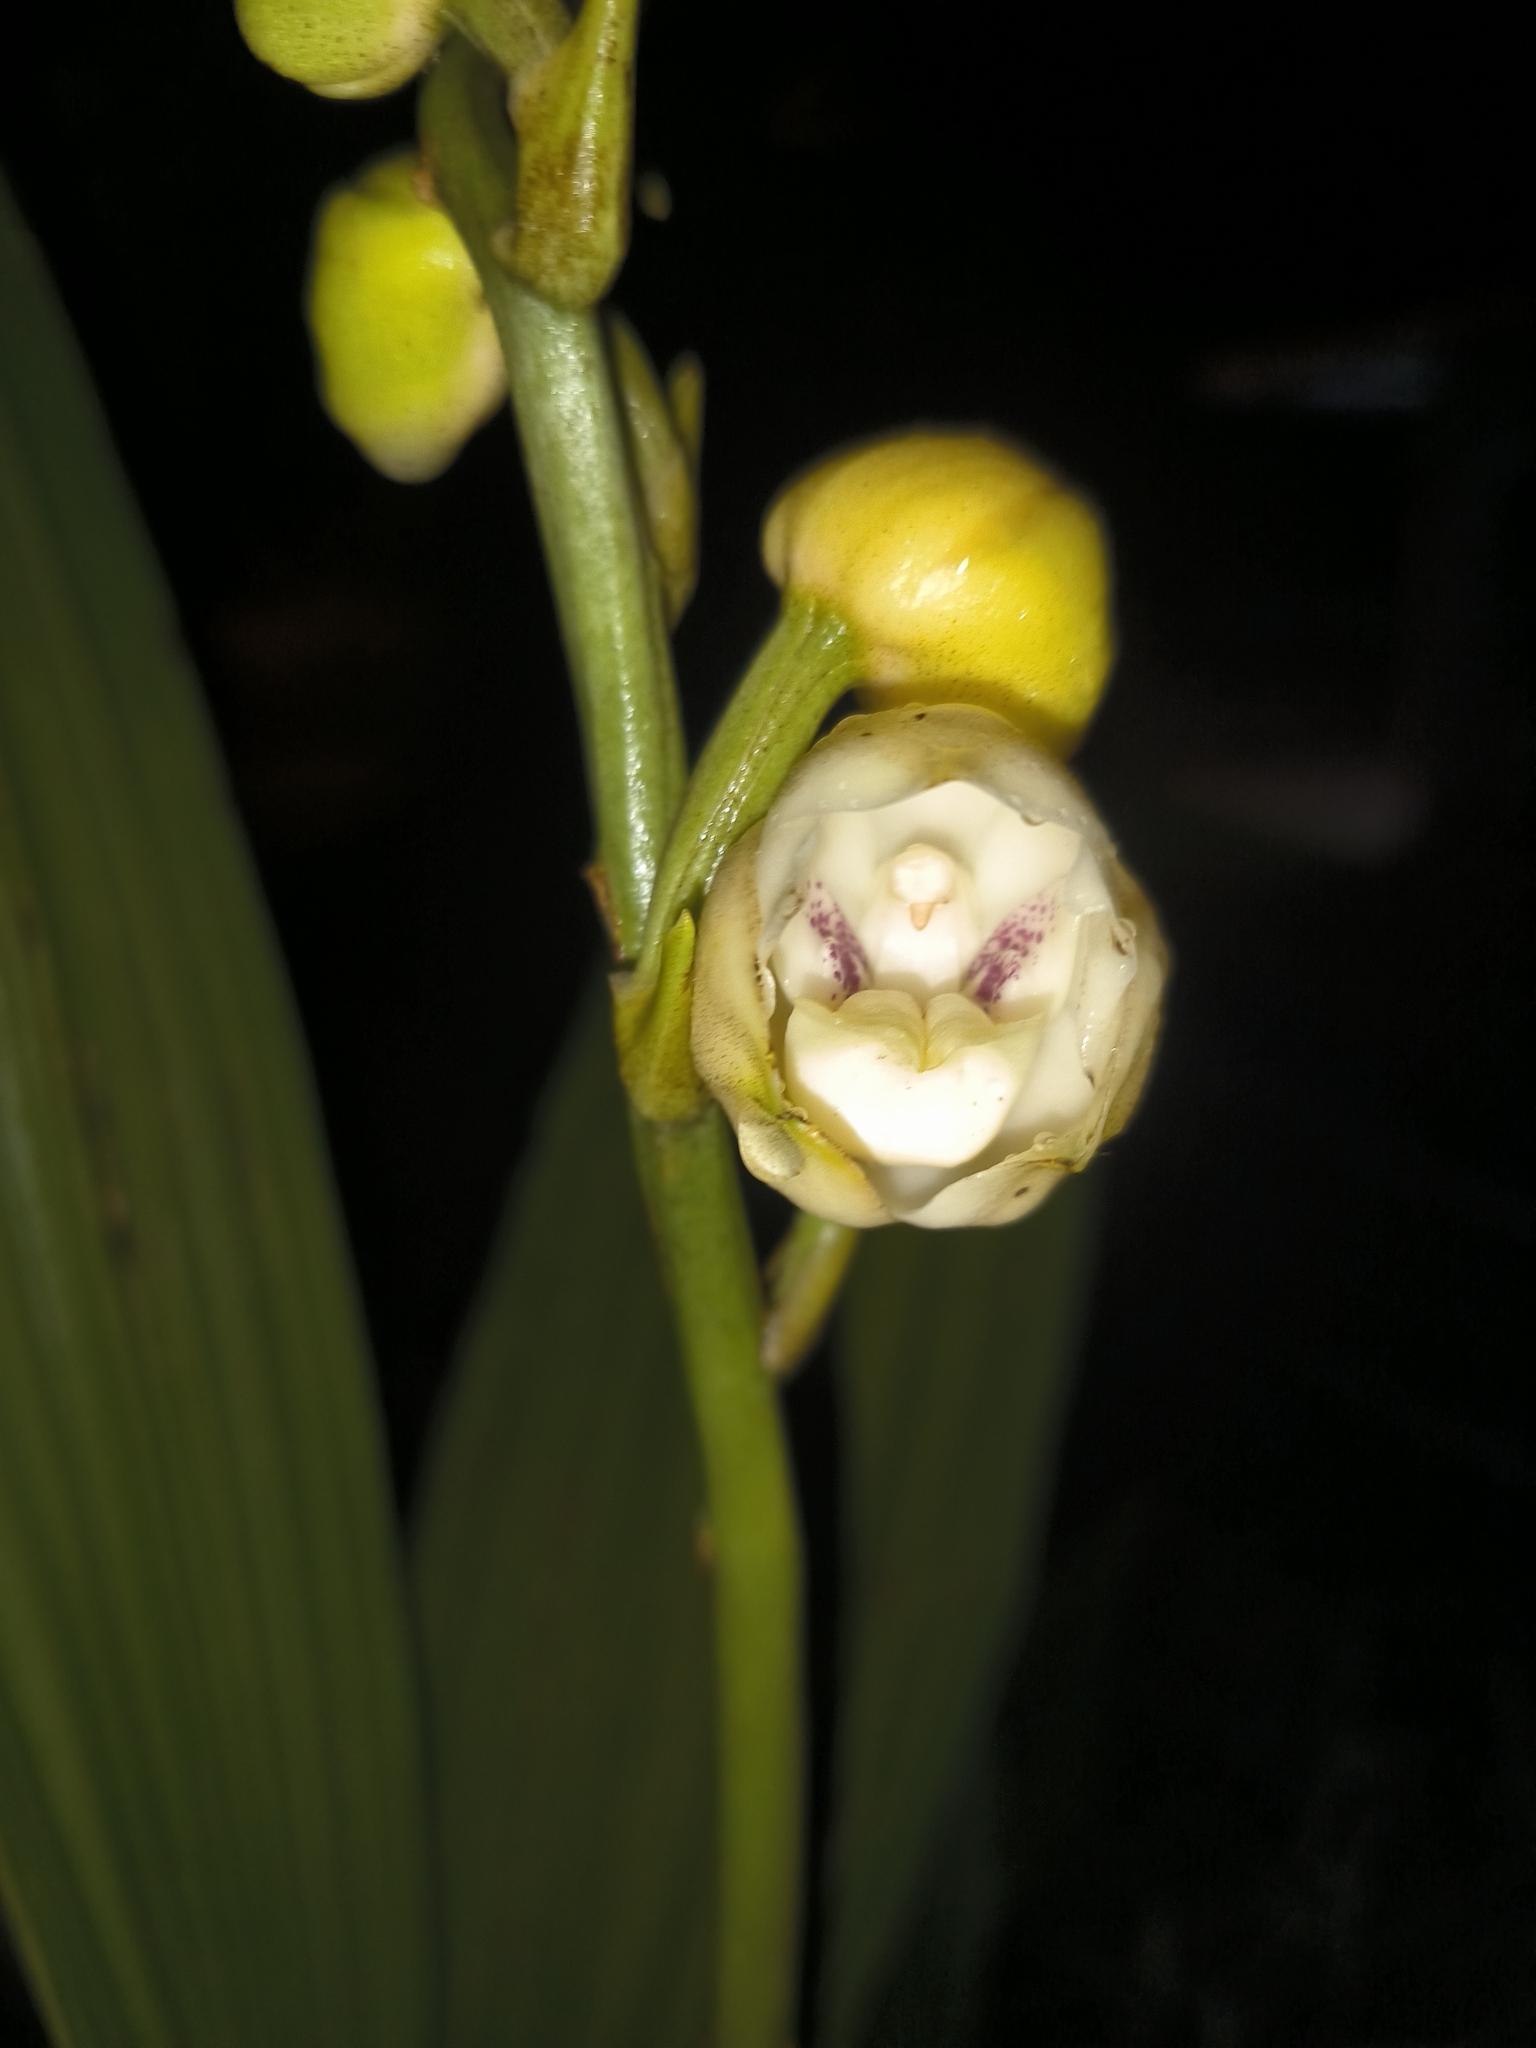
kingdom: Plantae
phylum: Tracheophyta
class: Liliopsida
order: Asparagales
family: Orchidaceae
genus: Peristeria
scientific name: Peristeria elata
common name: Dove orchid
